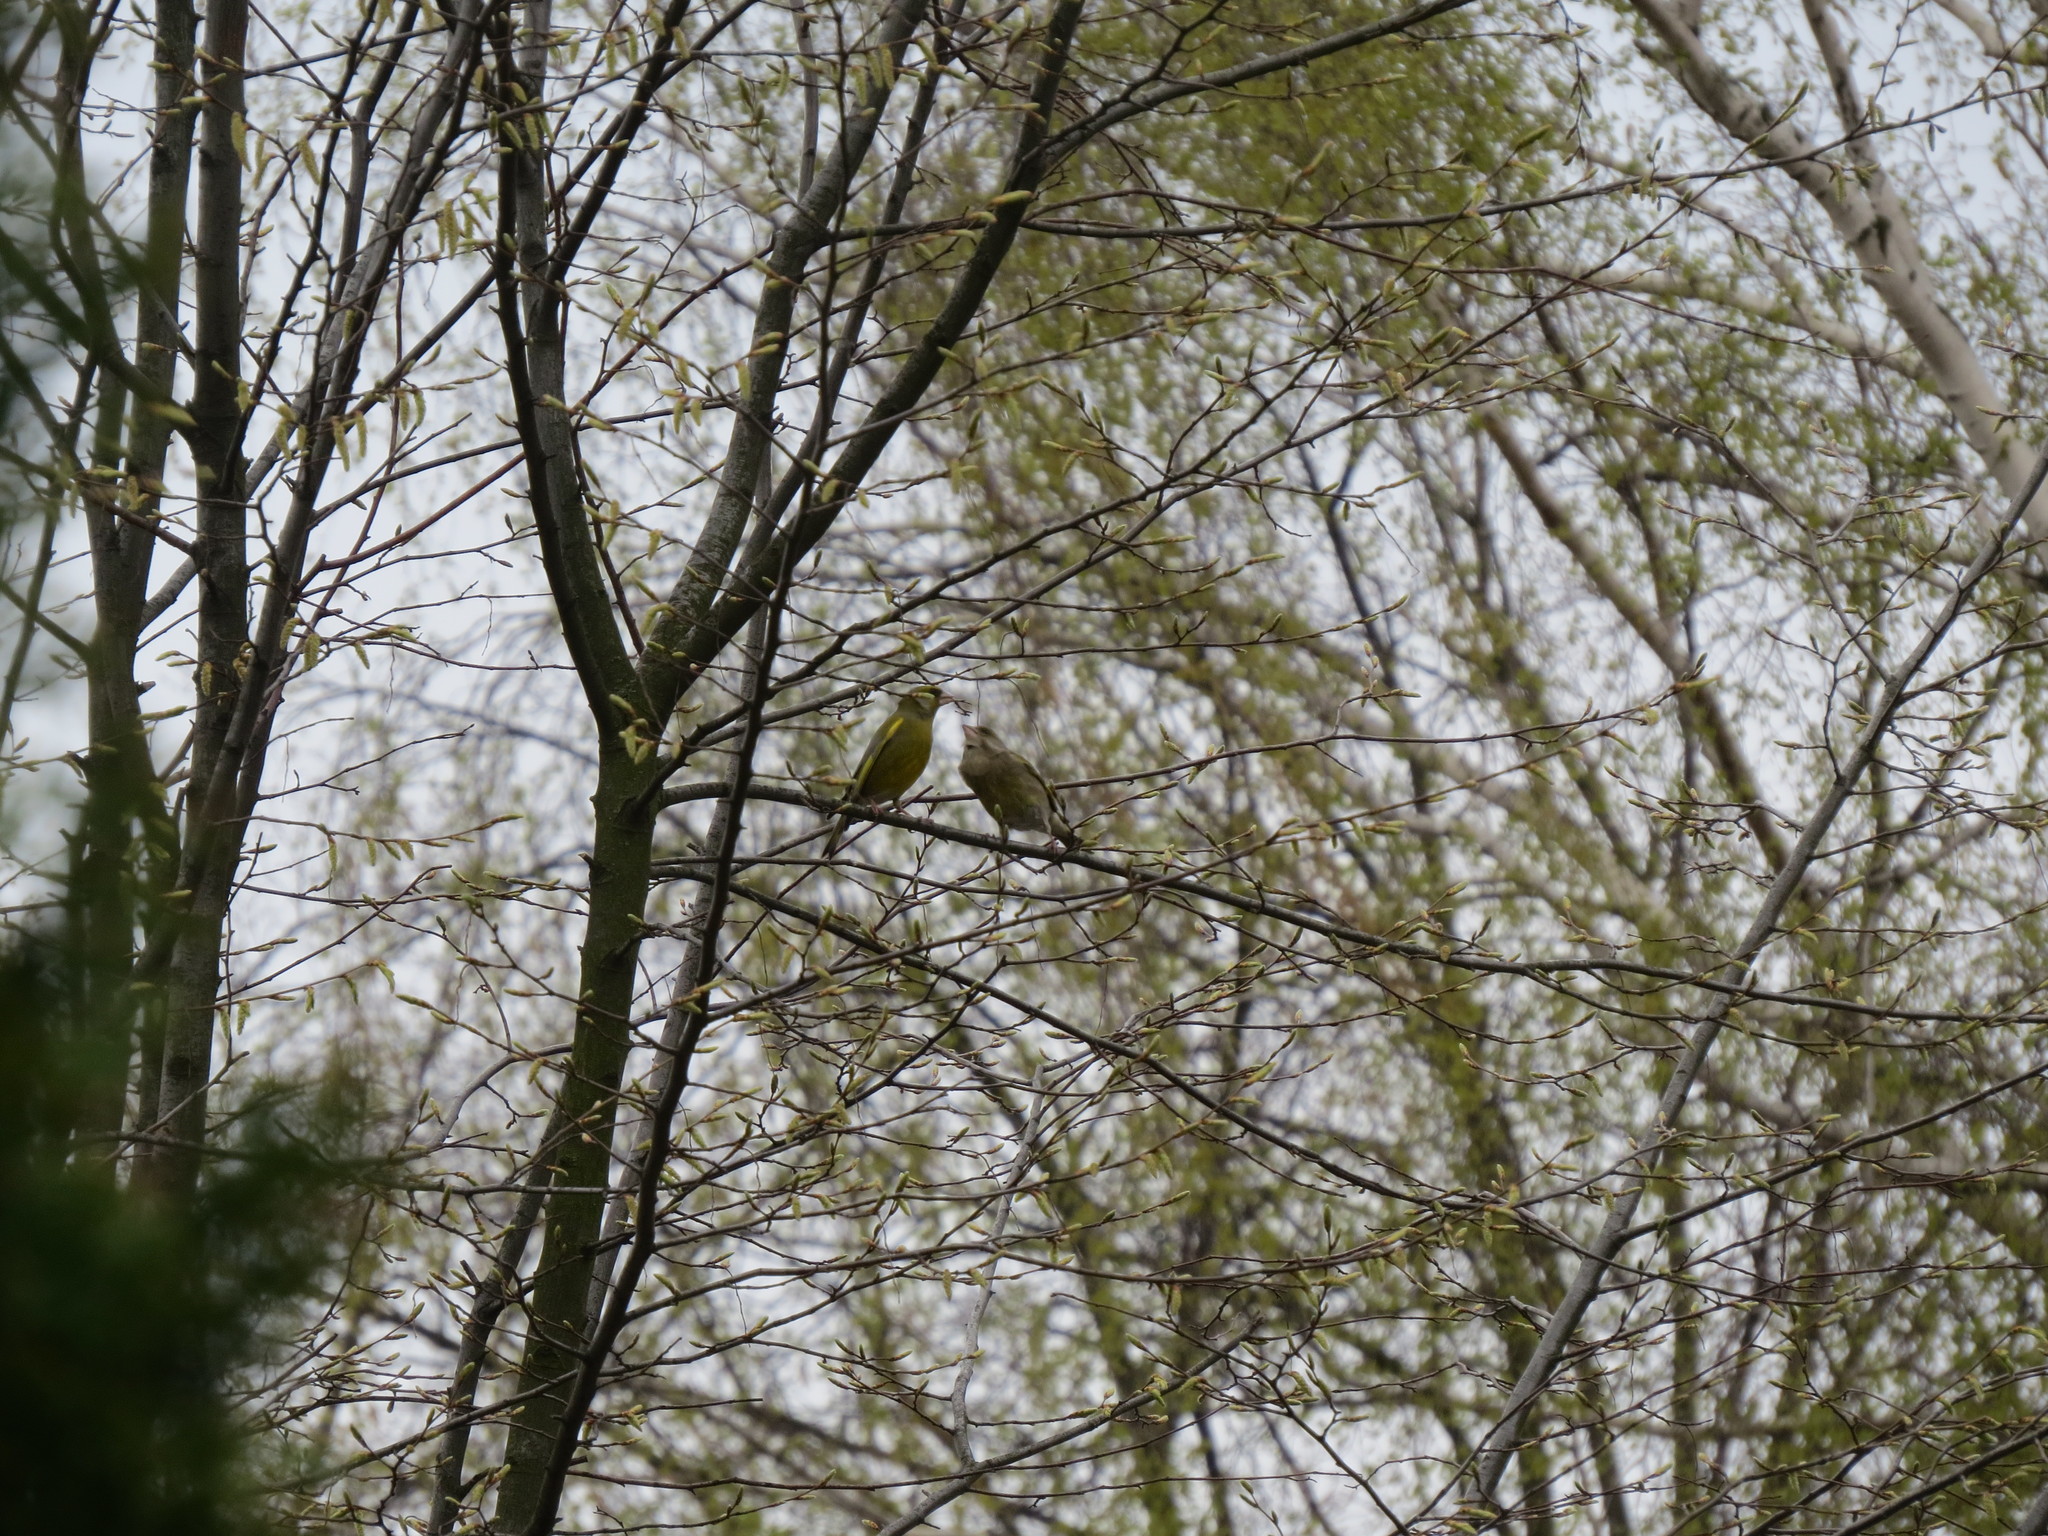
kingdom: Plantae
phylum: Tracheophyta
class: Liliopsida
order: Poales
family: Poaceae
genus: Chloris
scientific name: Chloris chloris
